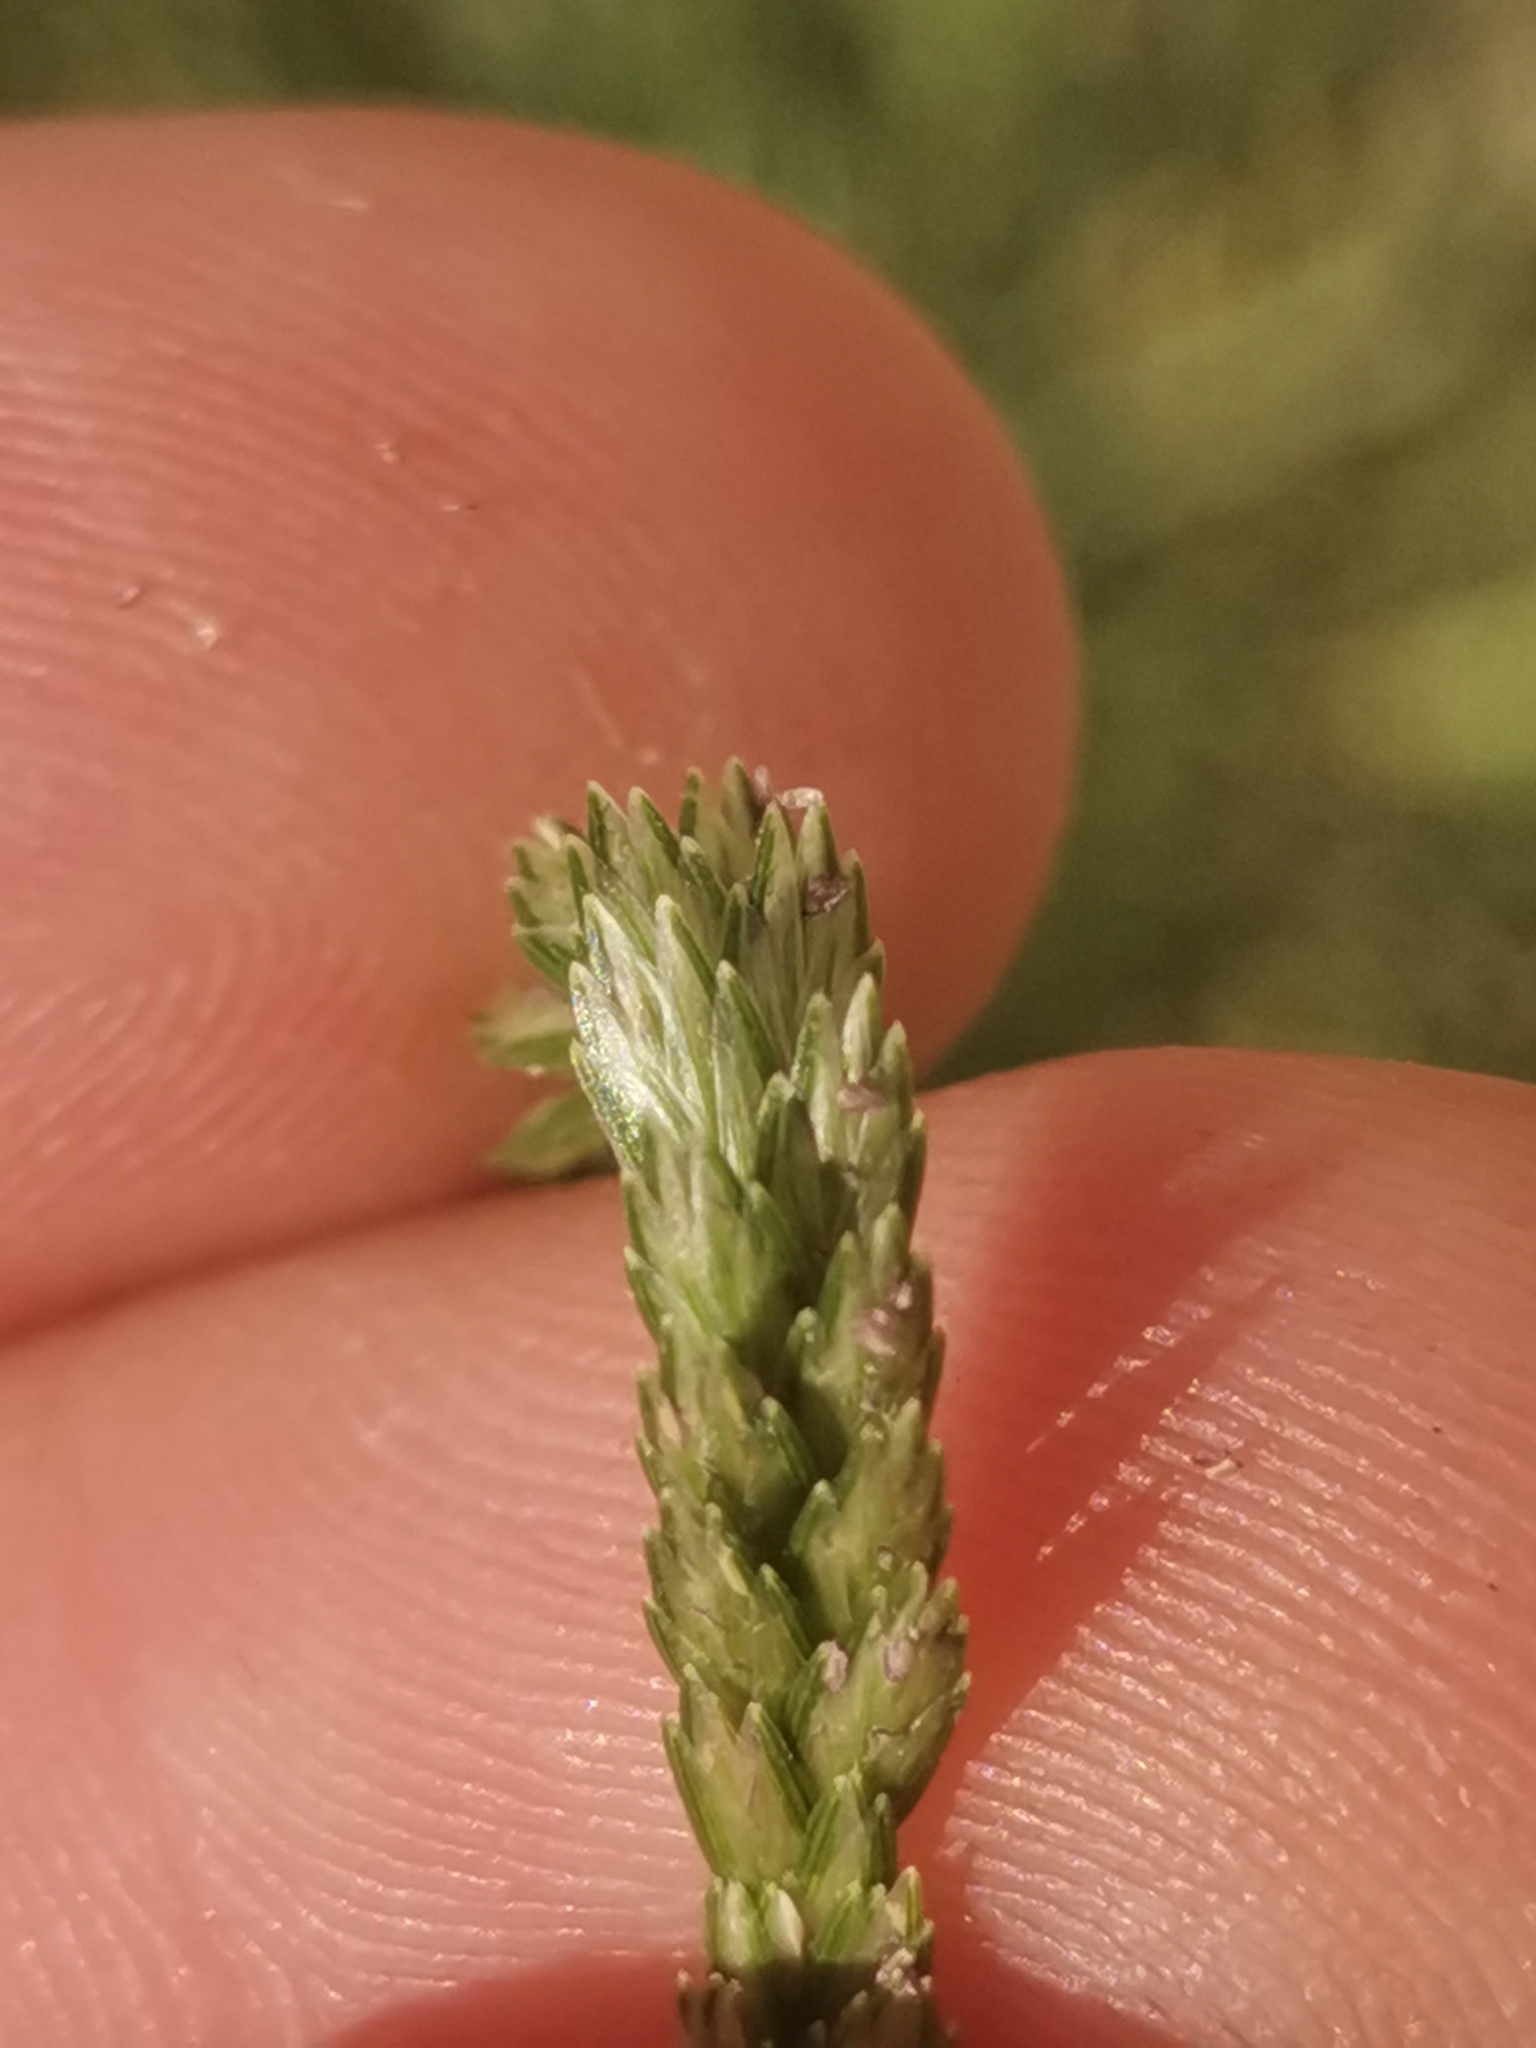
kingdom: Plantae
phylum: Tracheophyta
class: Liliopsida
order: Poales
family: Poaceae
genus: Eleusine
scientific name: Eleusine indica
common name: Yard-grass
